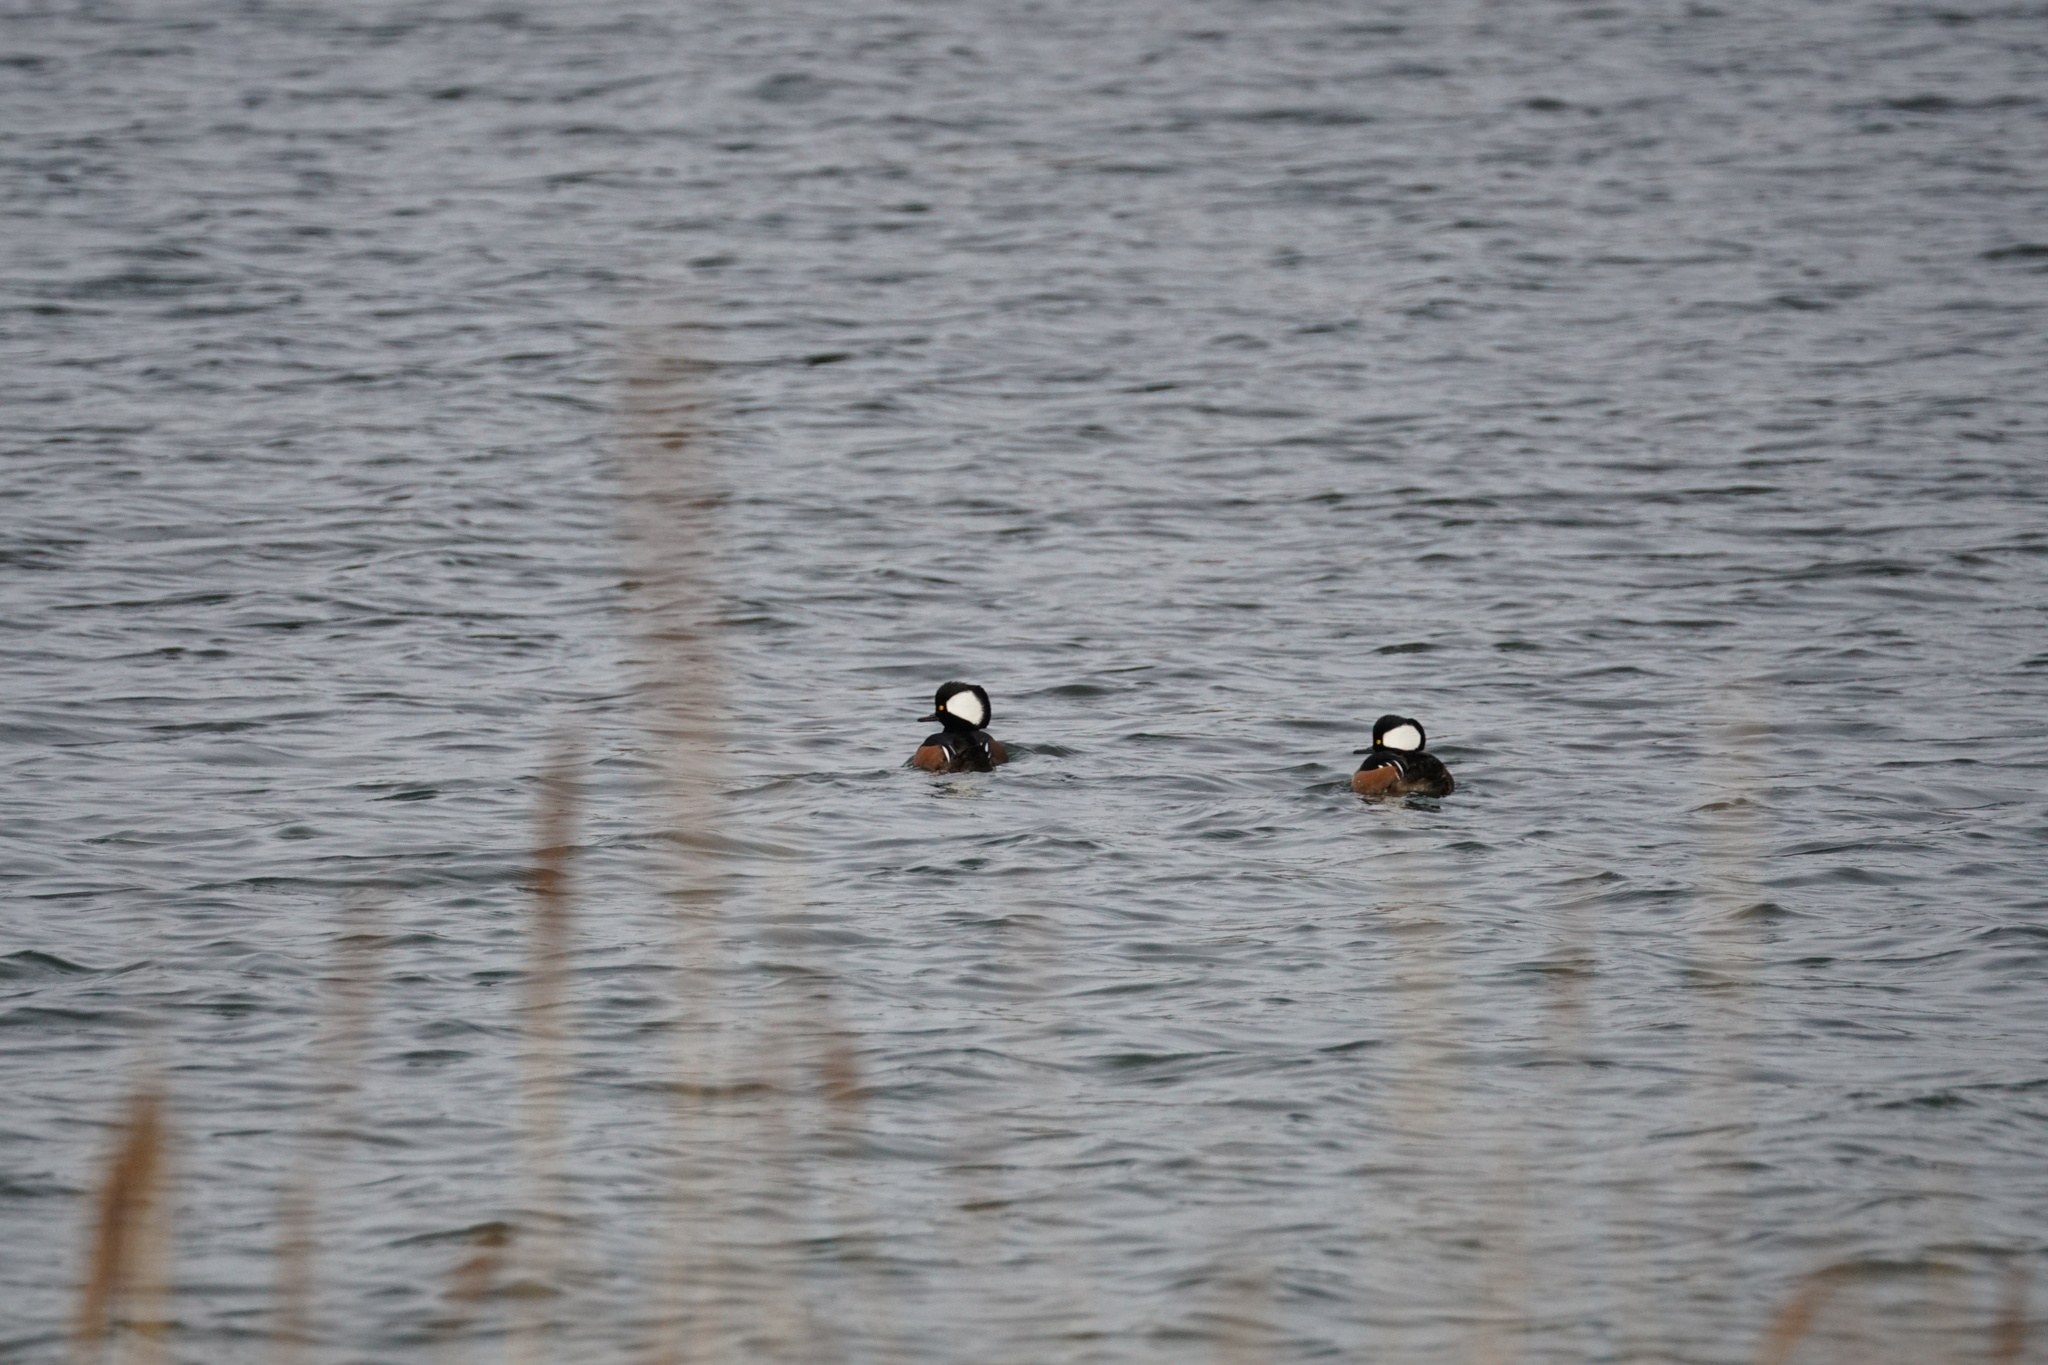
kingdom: Animalia
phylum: Chordata
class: Aves
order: Anseriformes
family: Anatidae
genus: Lophodytes
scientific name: Lophodytes cucullatus
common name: Hooded merganser
